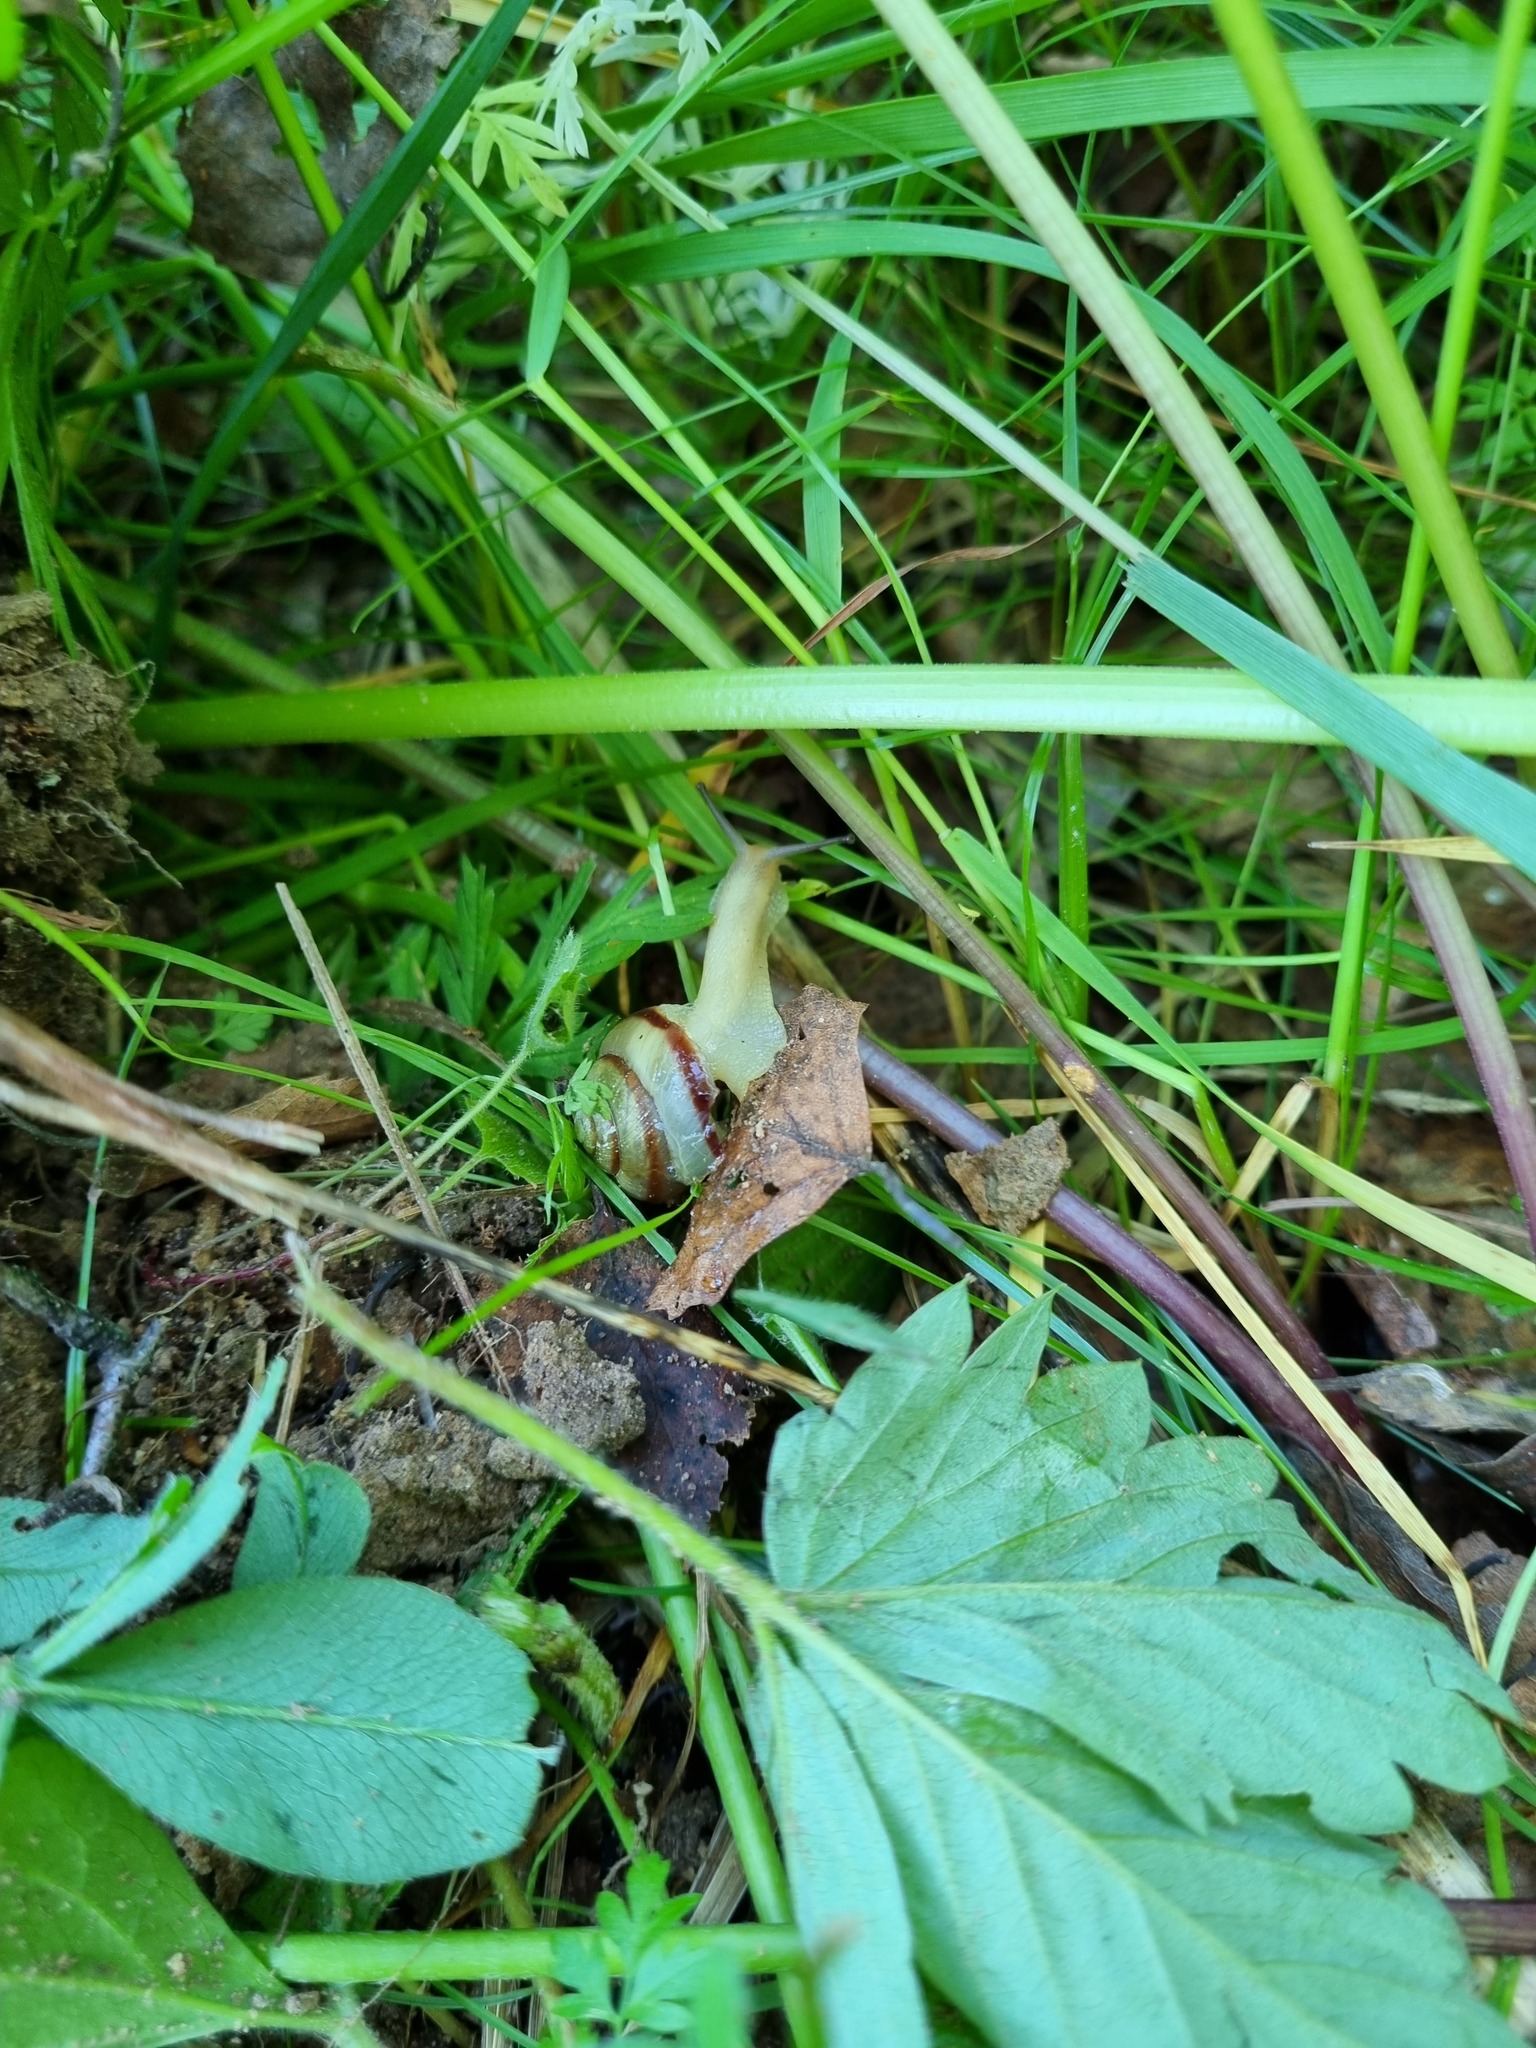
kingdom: Animalia
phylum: Mollusca
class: Gastropoda
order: Stylommatophora
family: Camaenidae
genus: Fruticicola
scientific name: Fruticicola fruticum
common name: Bush snail
